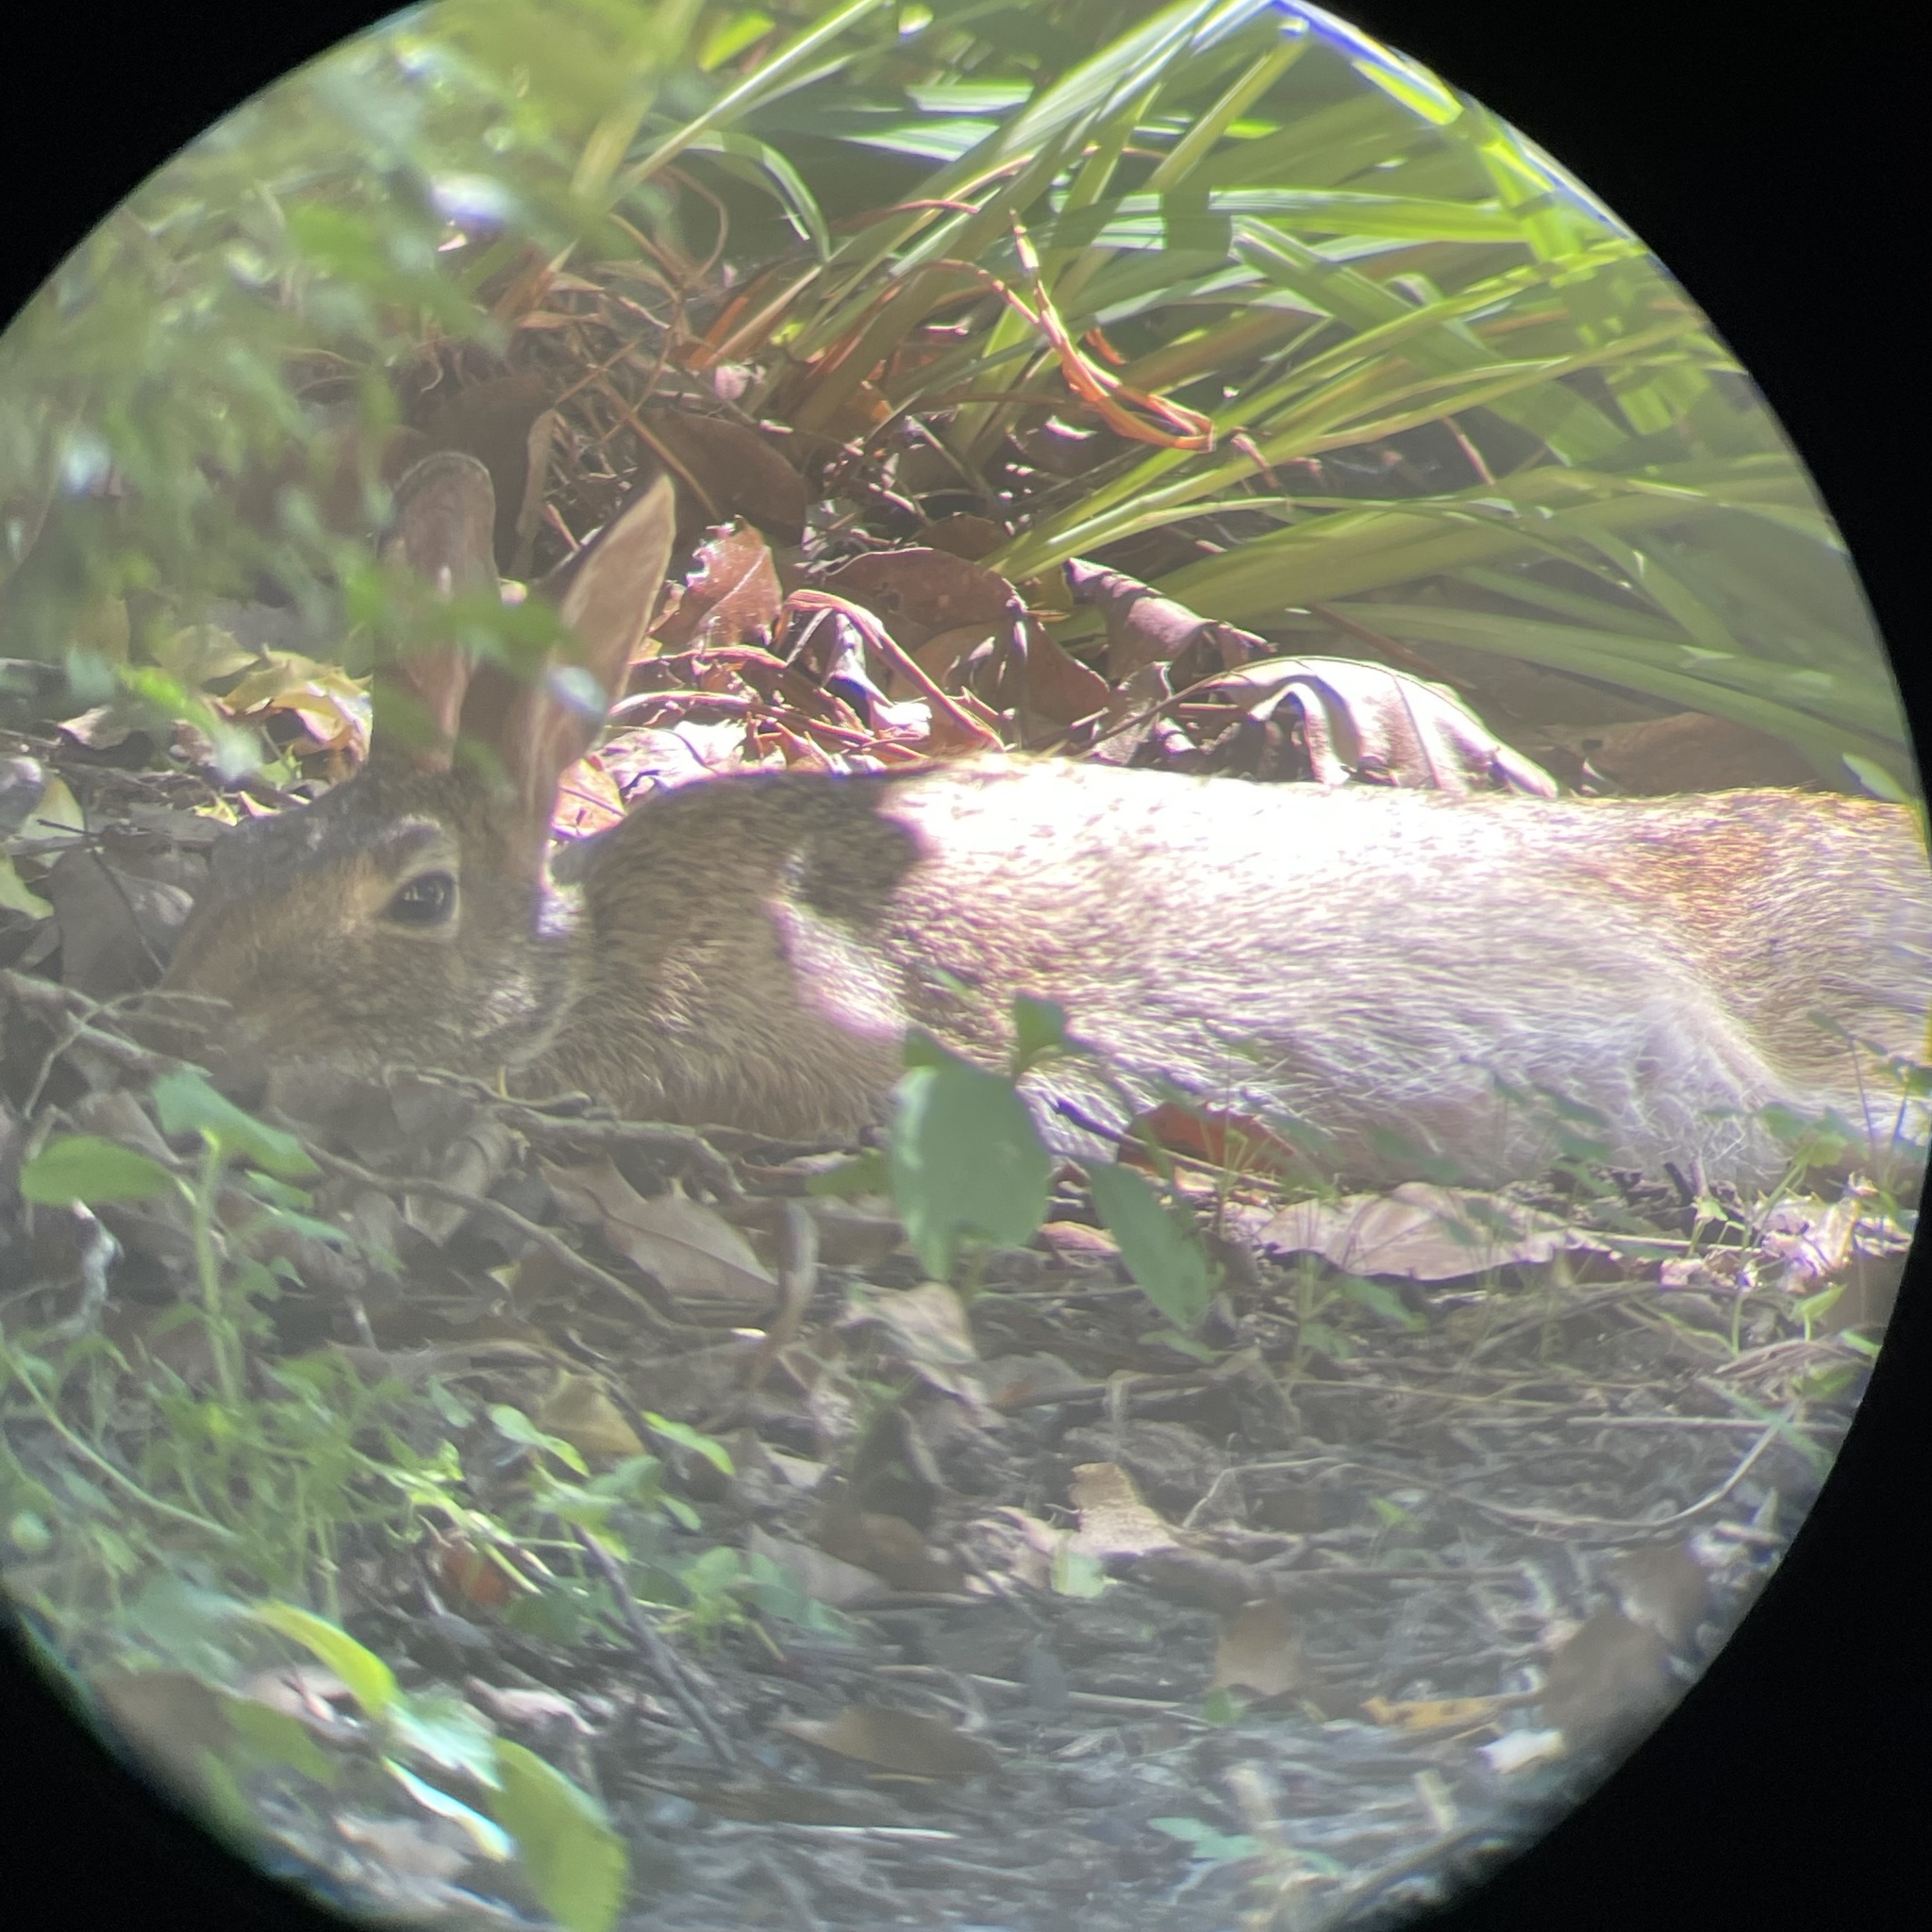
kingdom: Animalia
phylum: Chordata
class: Mammalia
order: Lagomorpha
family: Leporidae
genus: Sylvilagus
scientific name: Sylvilagus floridanus
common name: Eastern cottontail
